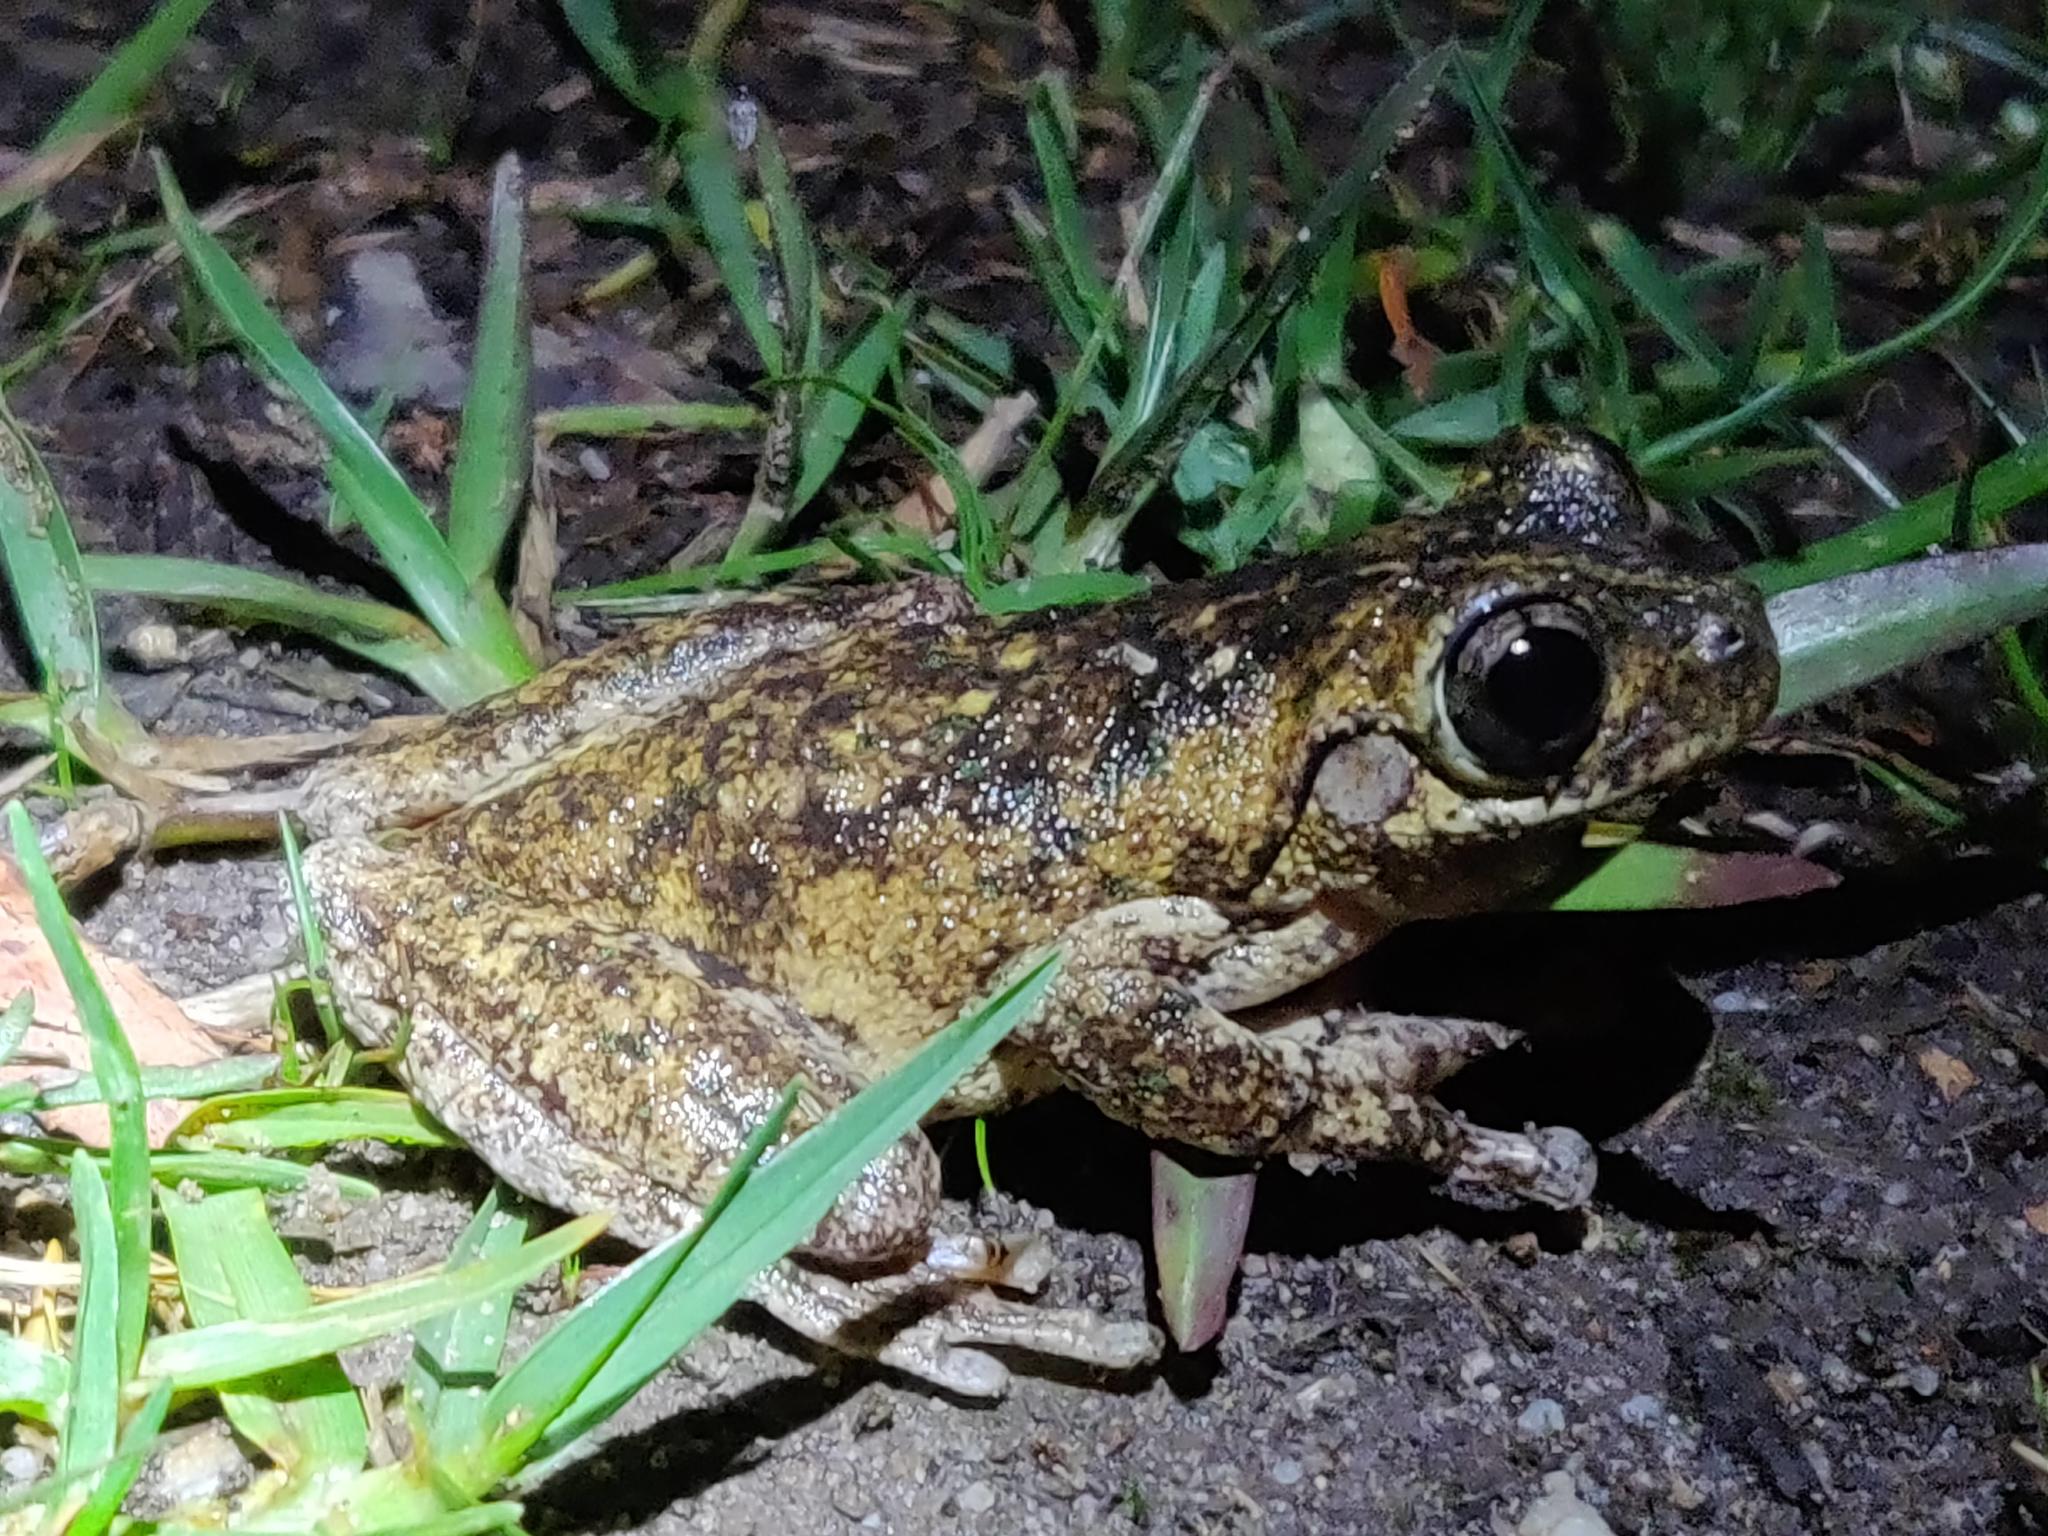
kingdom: Animalia
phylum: Chordata
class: Amphibia
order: Anura
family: Pelodryadidae
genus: Litoria
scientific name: Litoria peronii
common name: Emerald spotted treefrog
